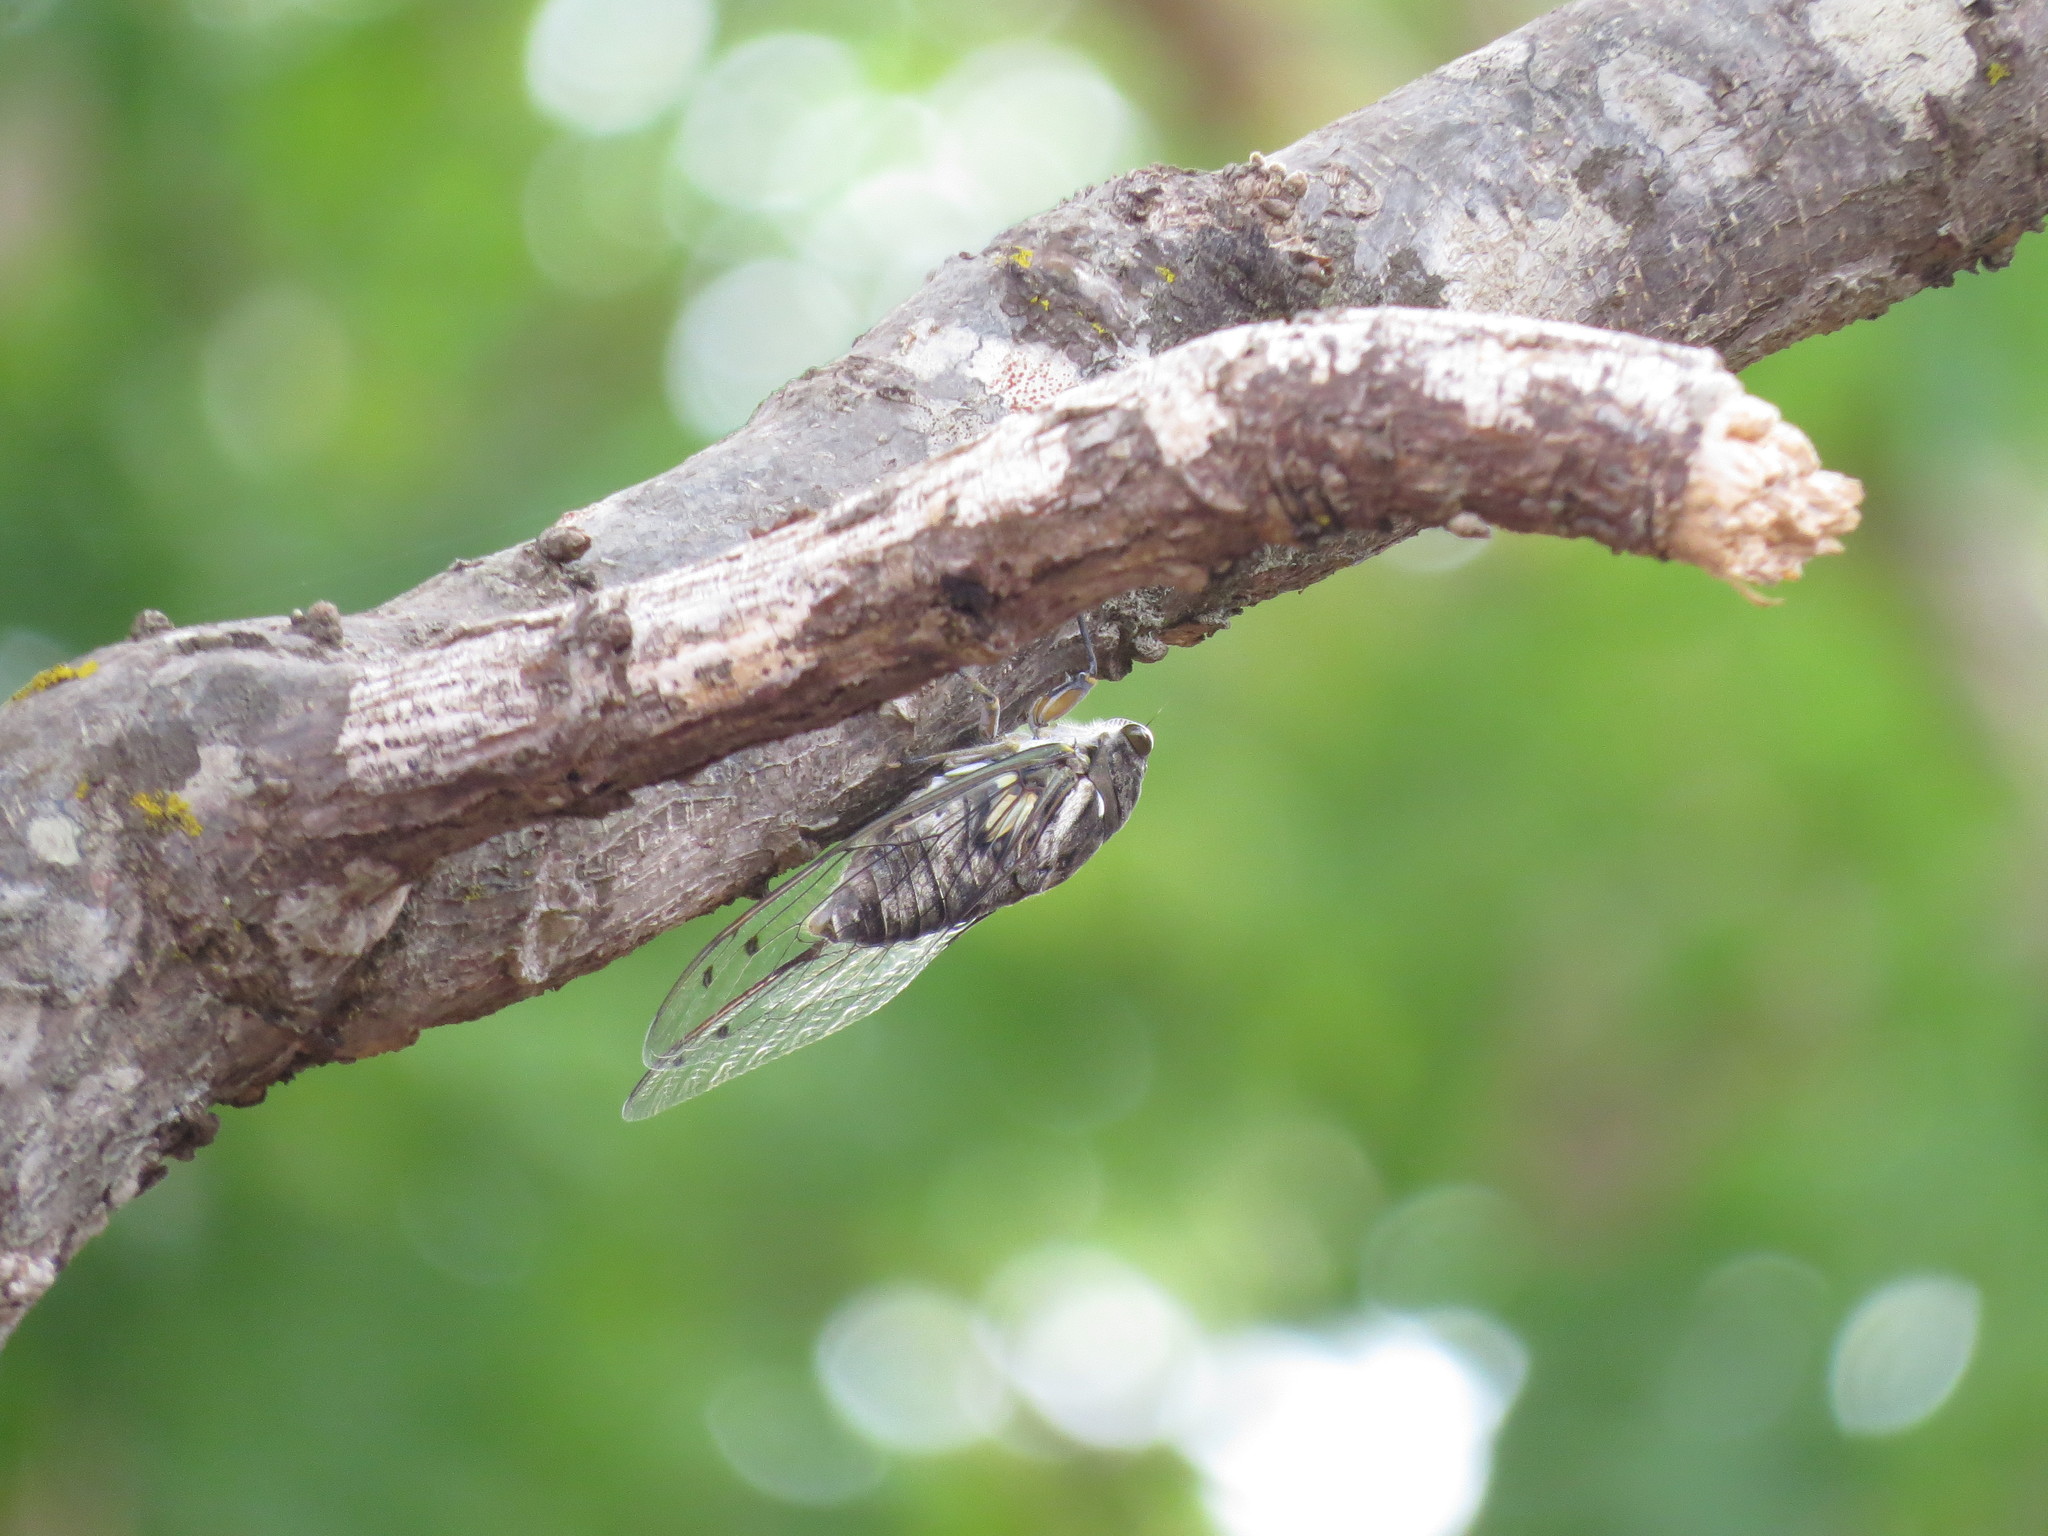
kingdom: Animalia
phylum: Arthropoda
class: Insecta
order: Hemiptera
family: Cicadidae
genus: Quesada
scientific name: Quesada gigas
